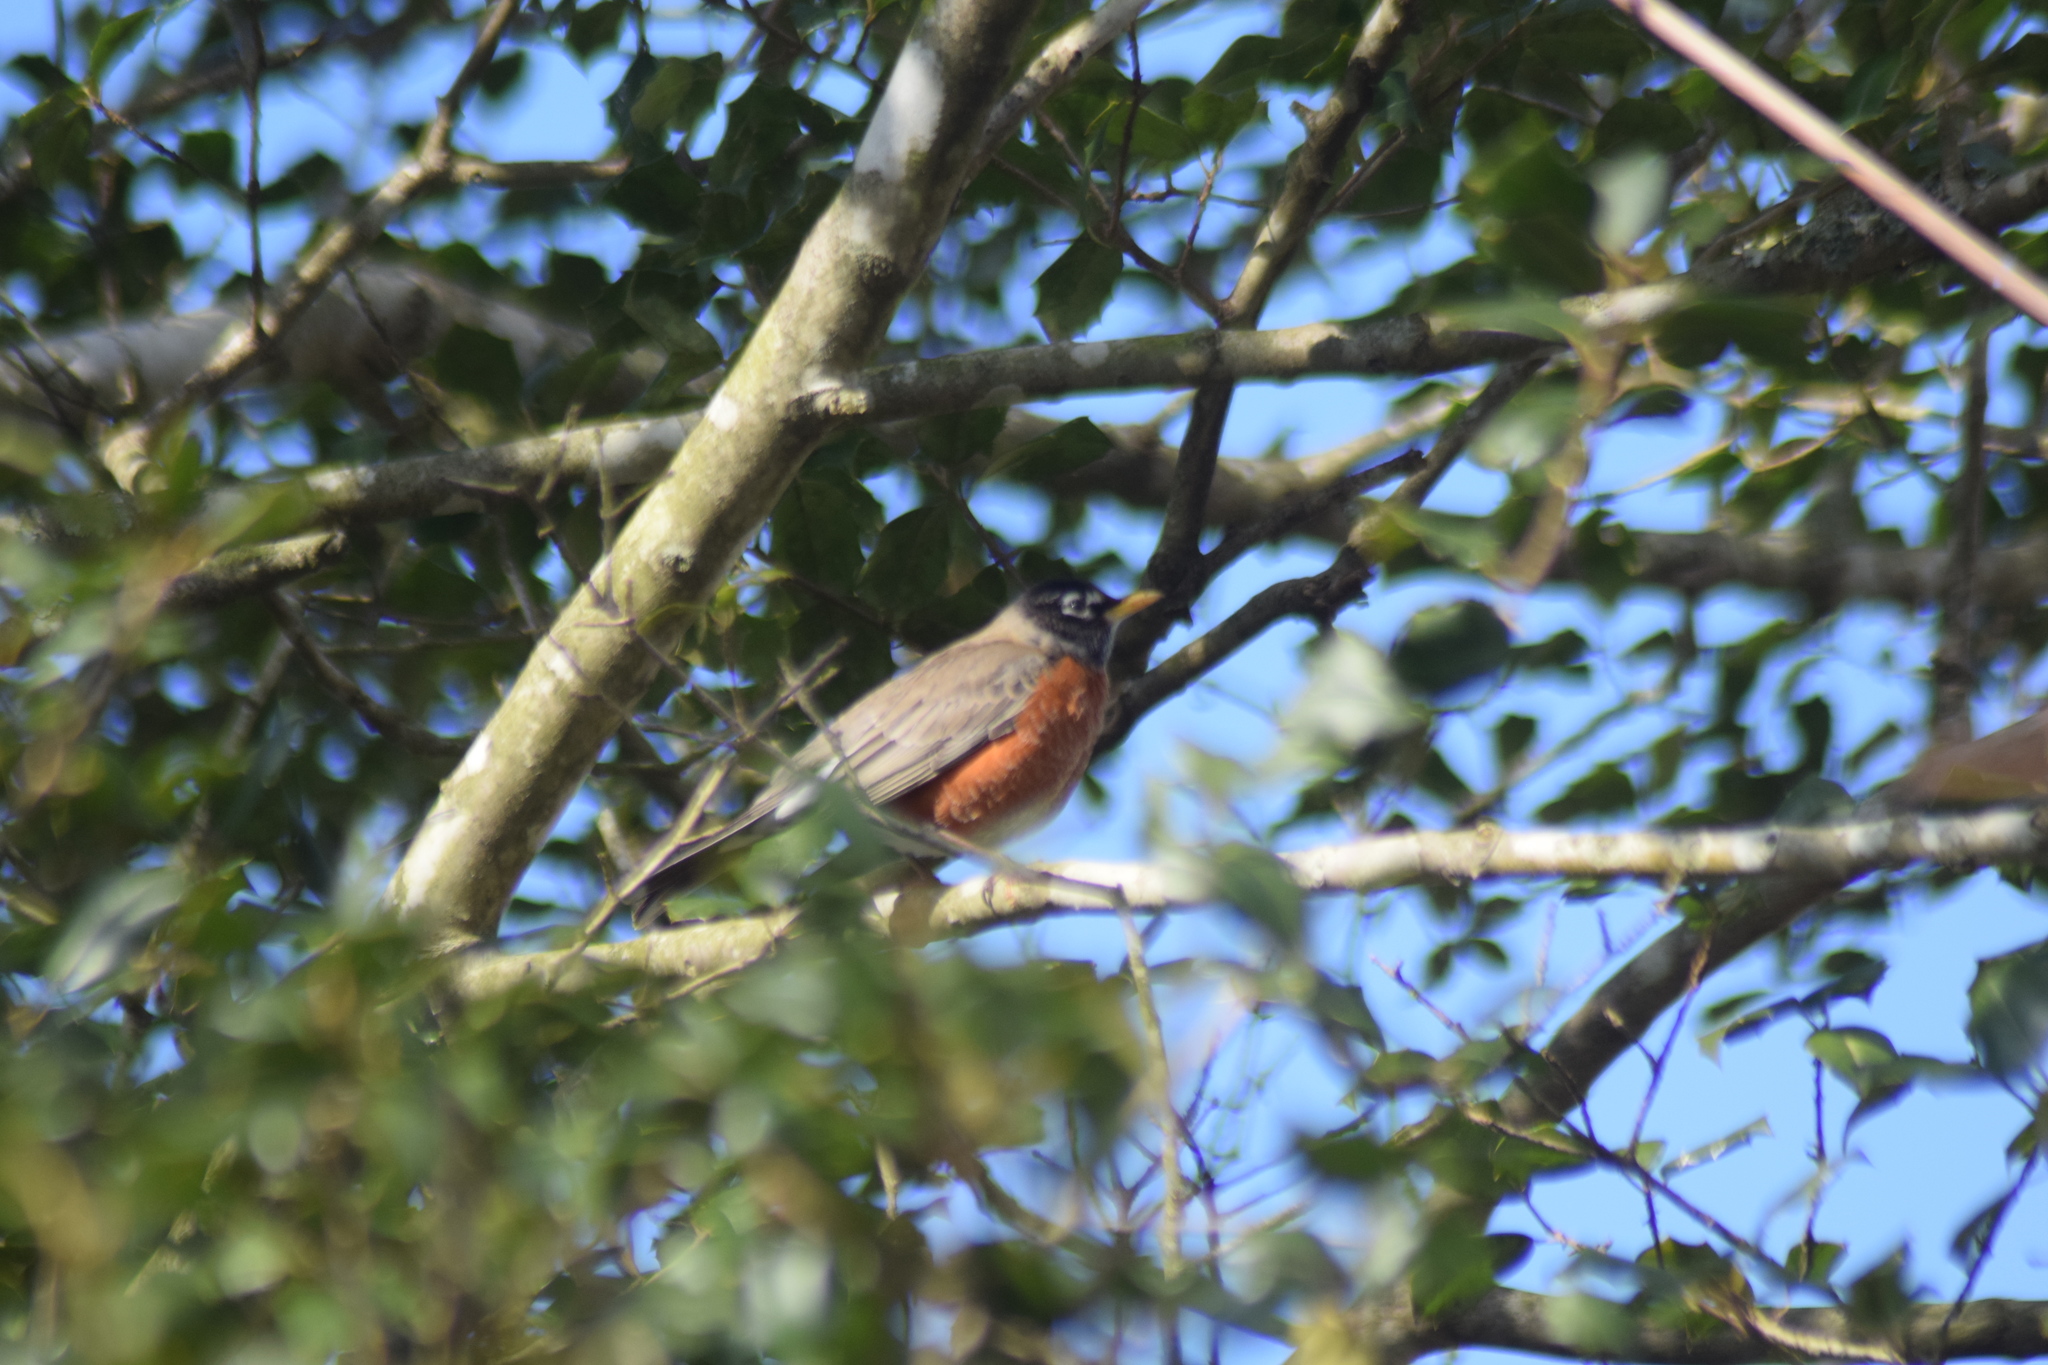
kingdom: Animalia
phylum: Chordata
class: Aves
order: Passeriformes
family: Turdidae
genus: Turdus
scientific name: Turdus migratorius
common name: American robin
